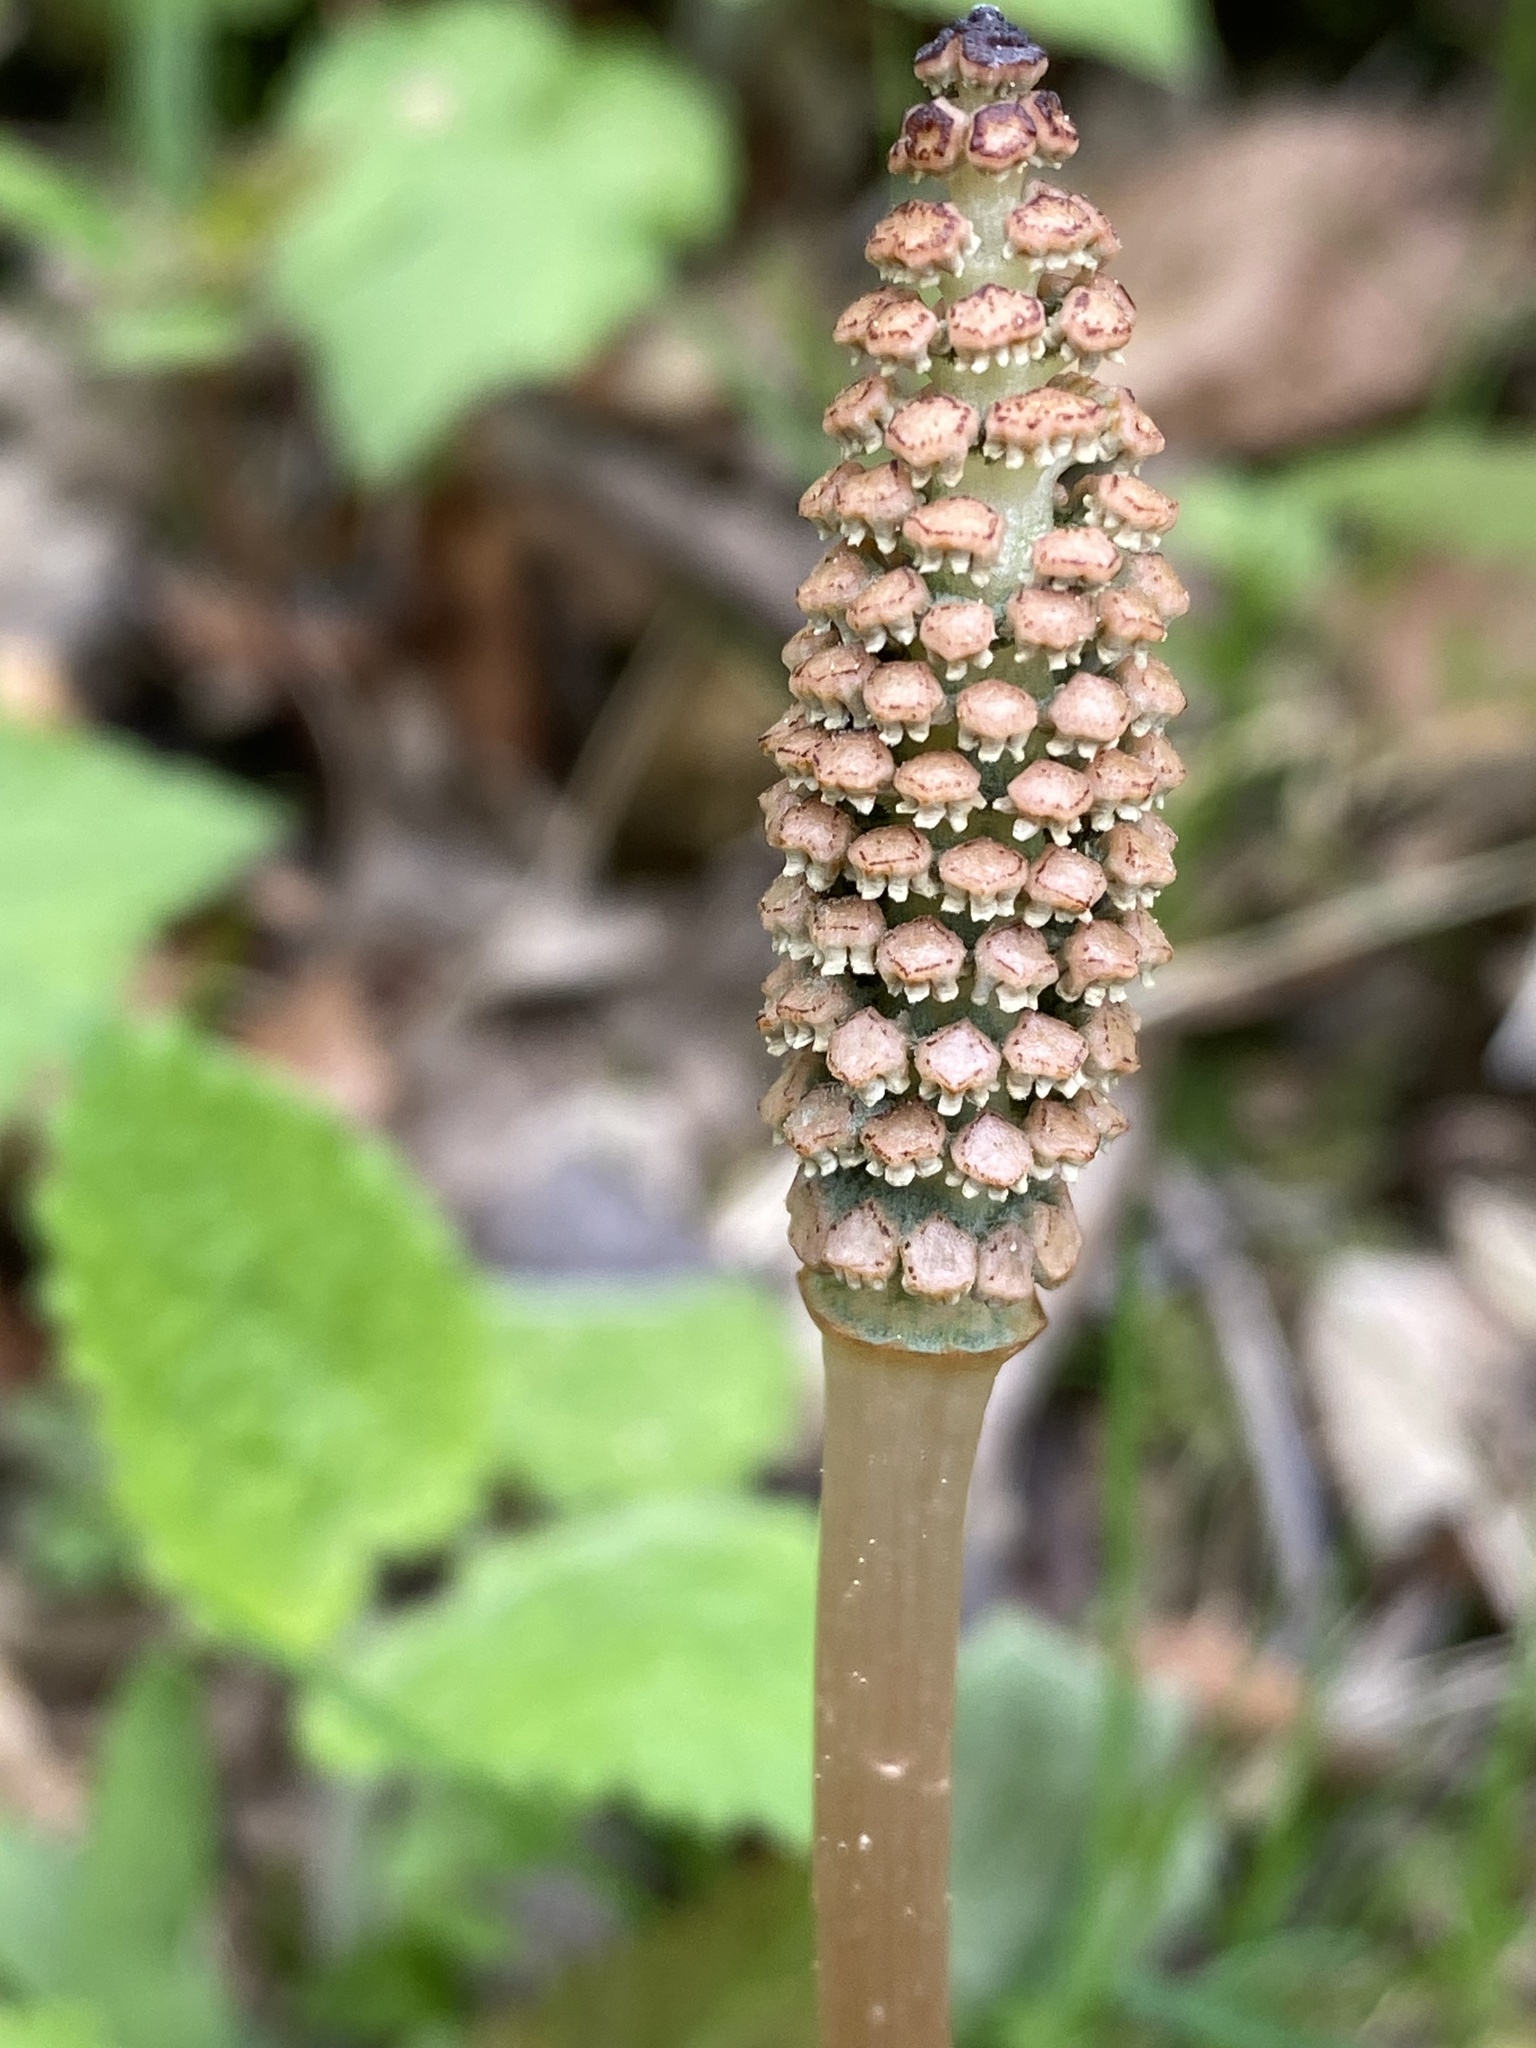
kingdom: Plantae
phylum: Tracheophyta
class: Polypodiopsida
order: Equisetales
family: Equisetaceae
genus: Equisetum
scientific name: Equisetum arvense
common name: Field horsetail
